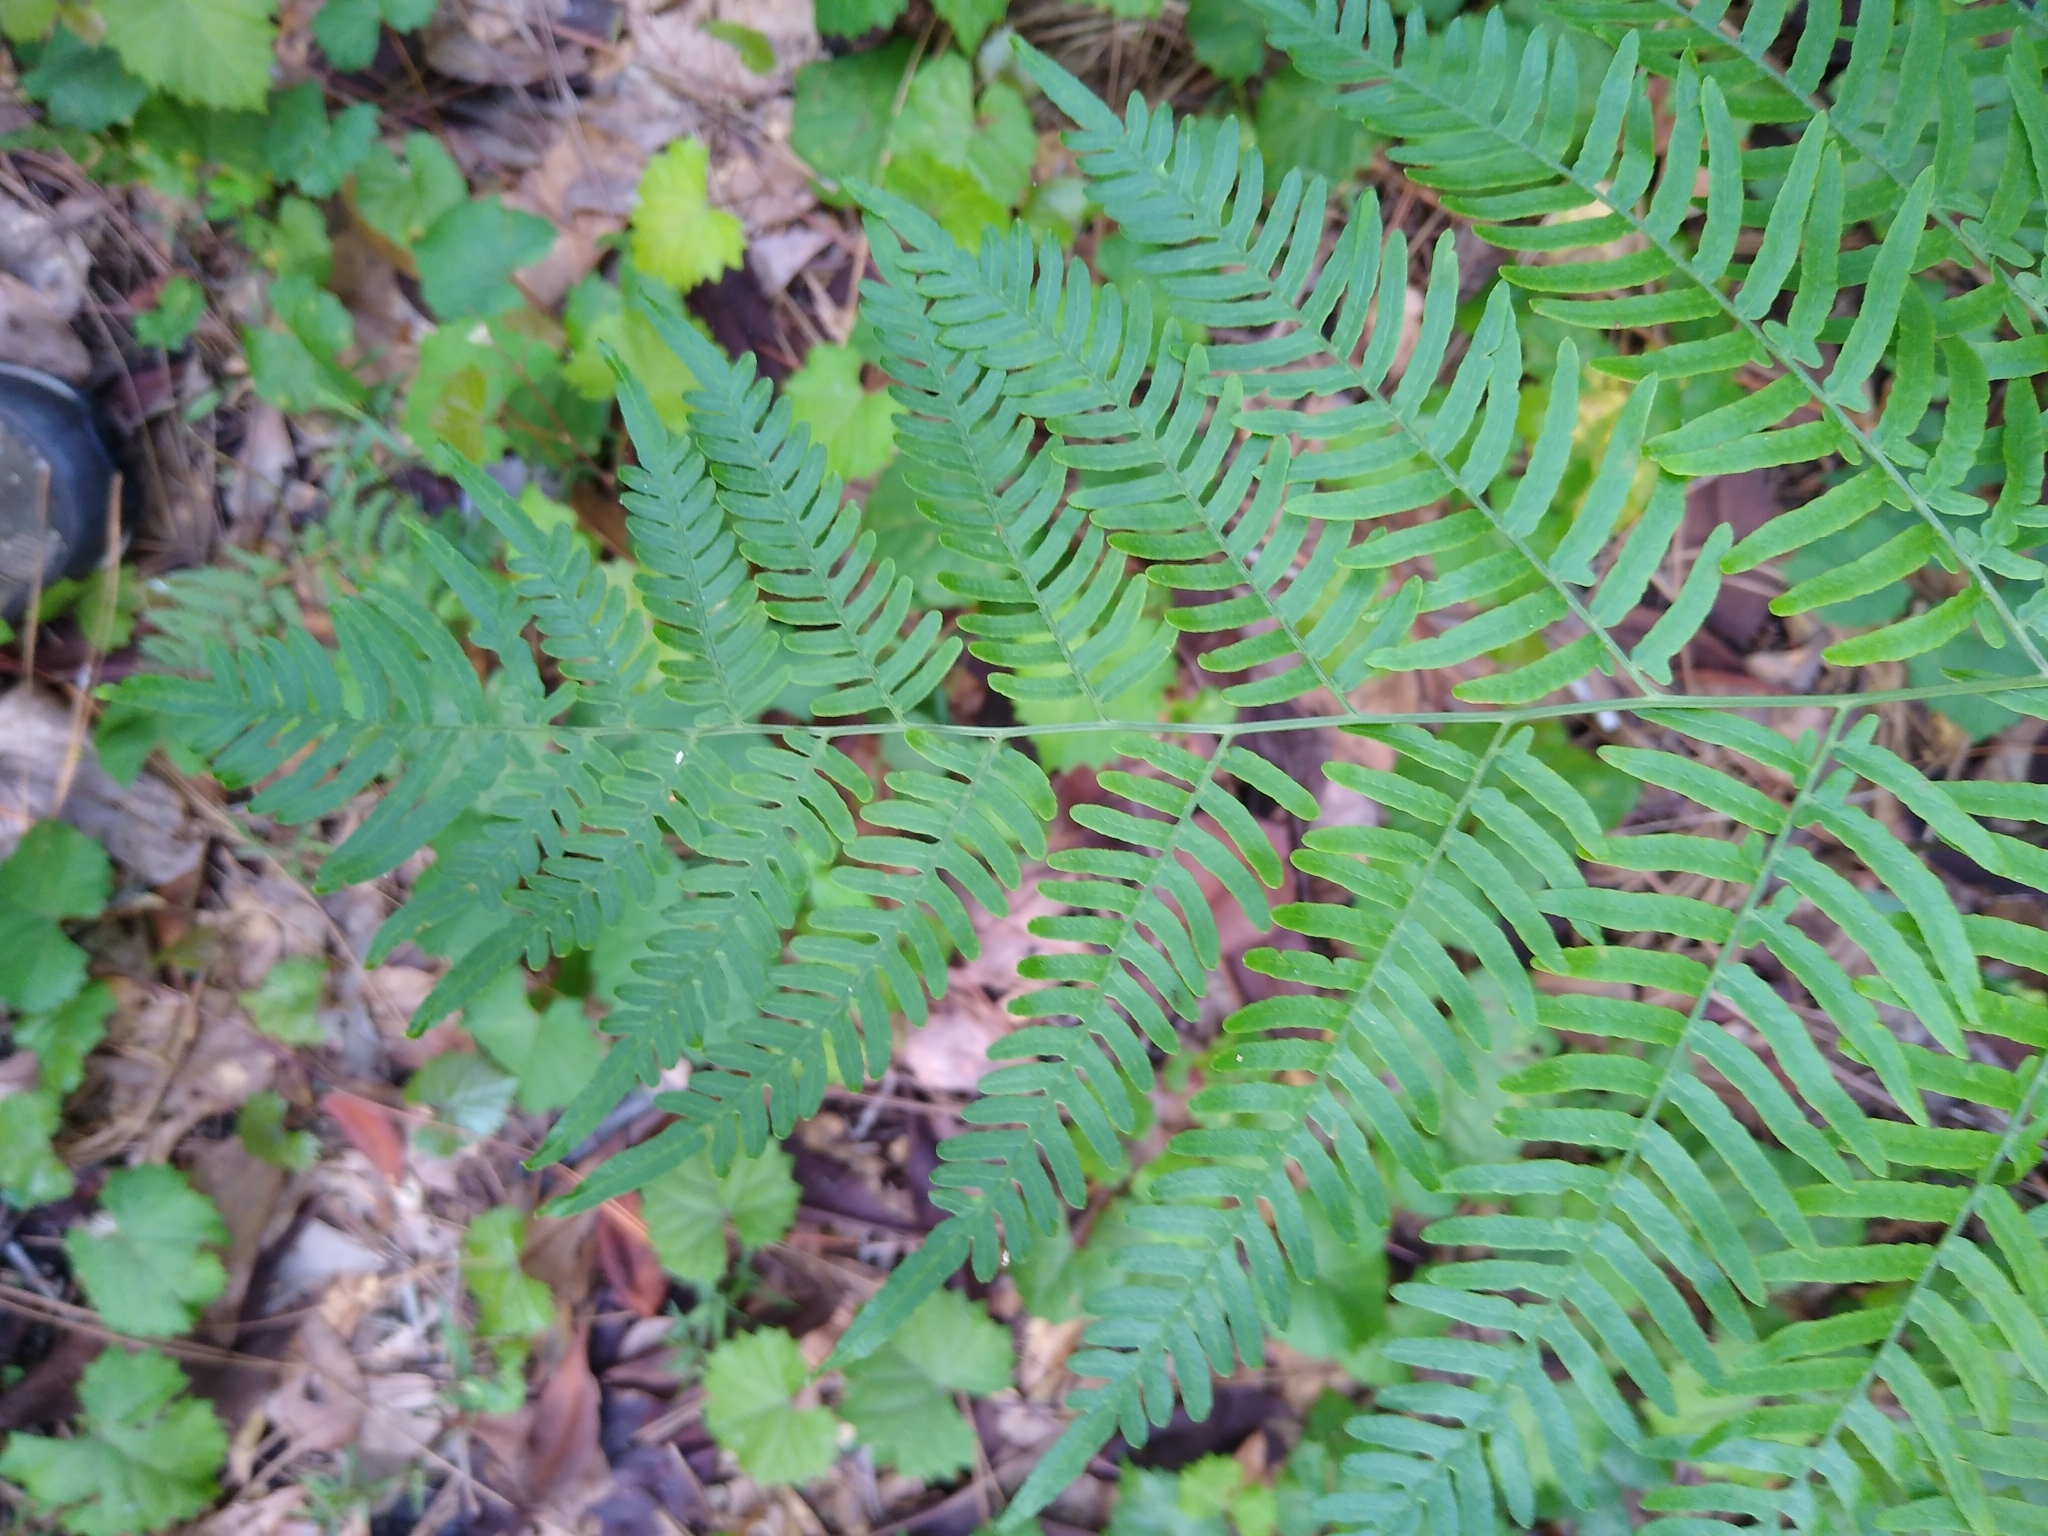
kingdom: Plantae
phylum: Tracheophyta
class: Polypodiopsida
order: Polypodiales
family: Dennstaedtiaceae
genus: Pteridium
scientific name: Pteridium
